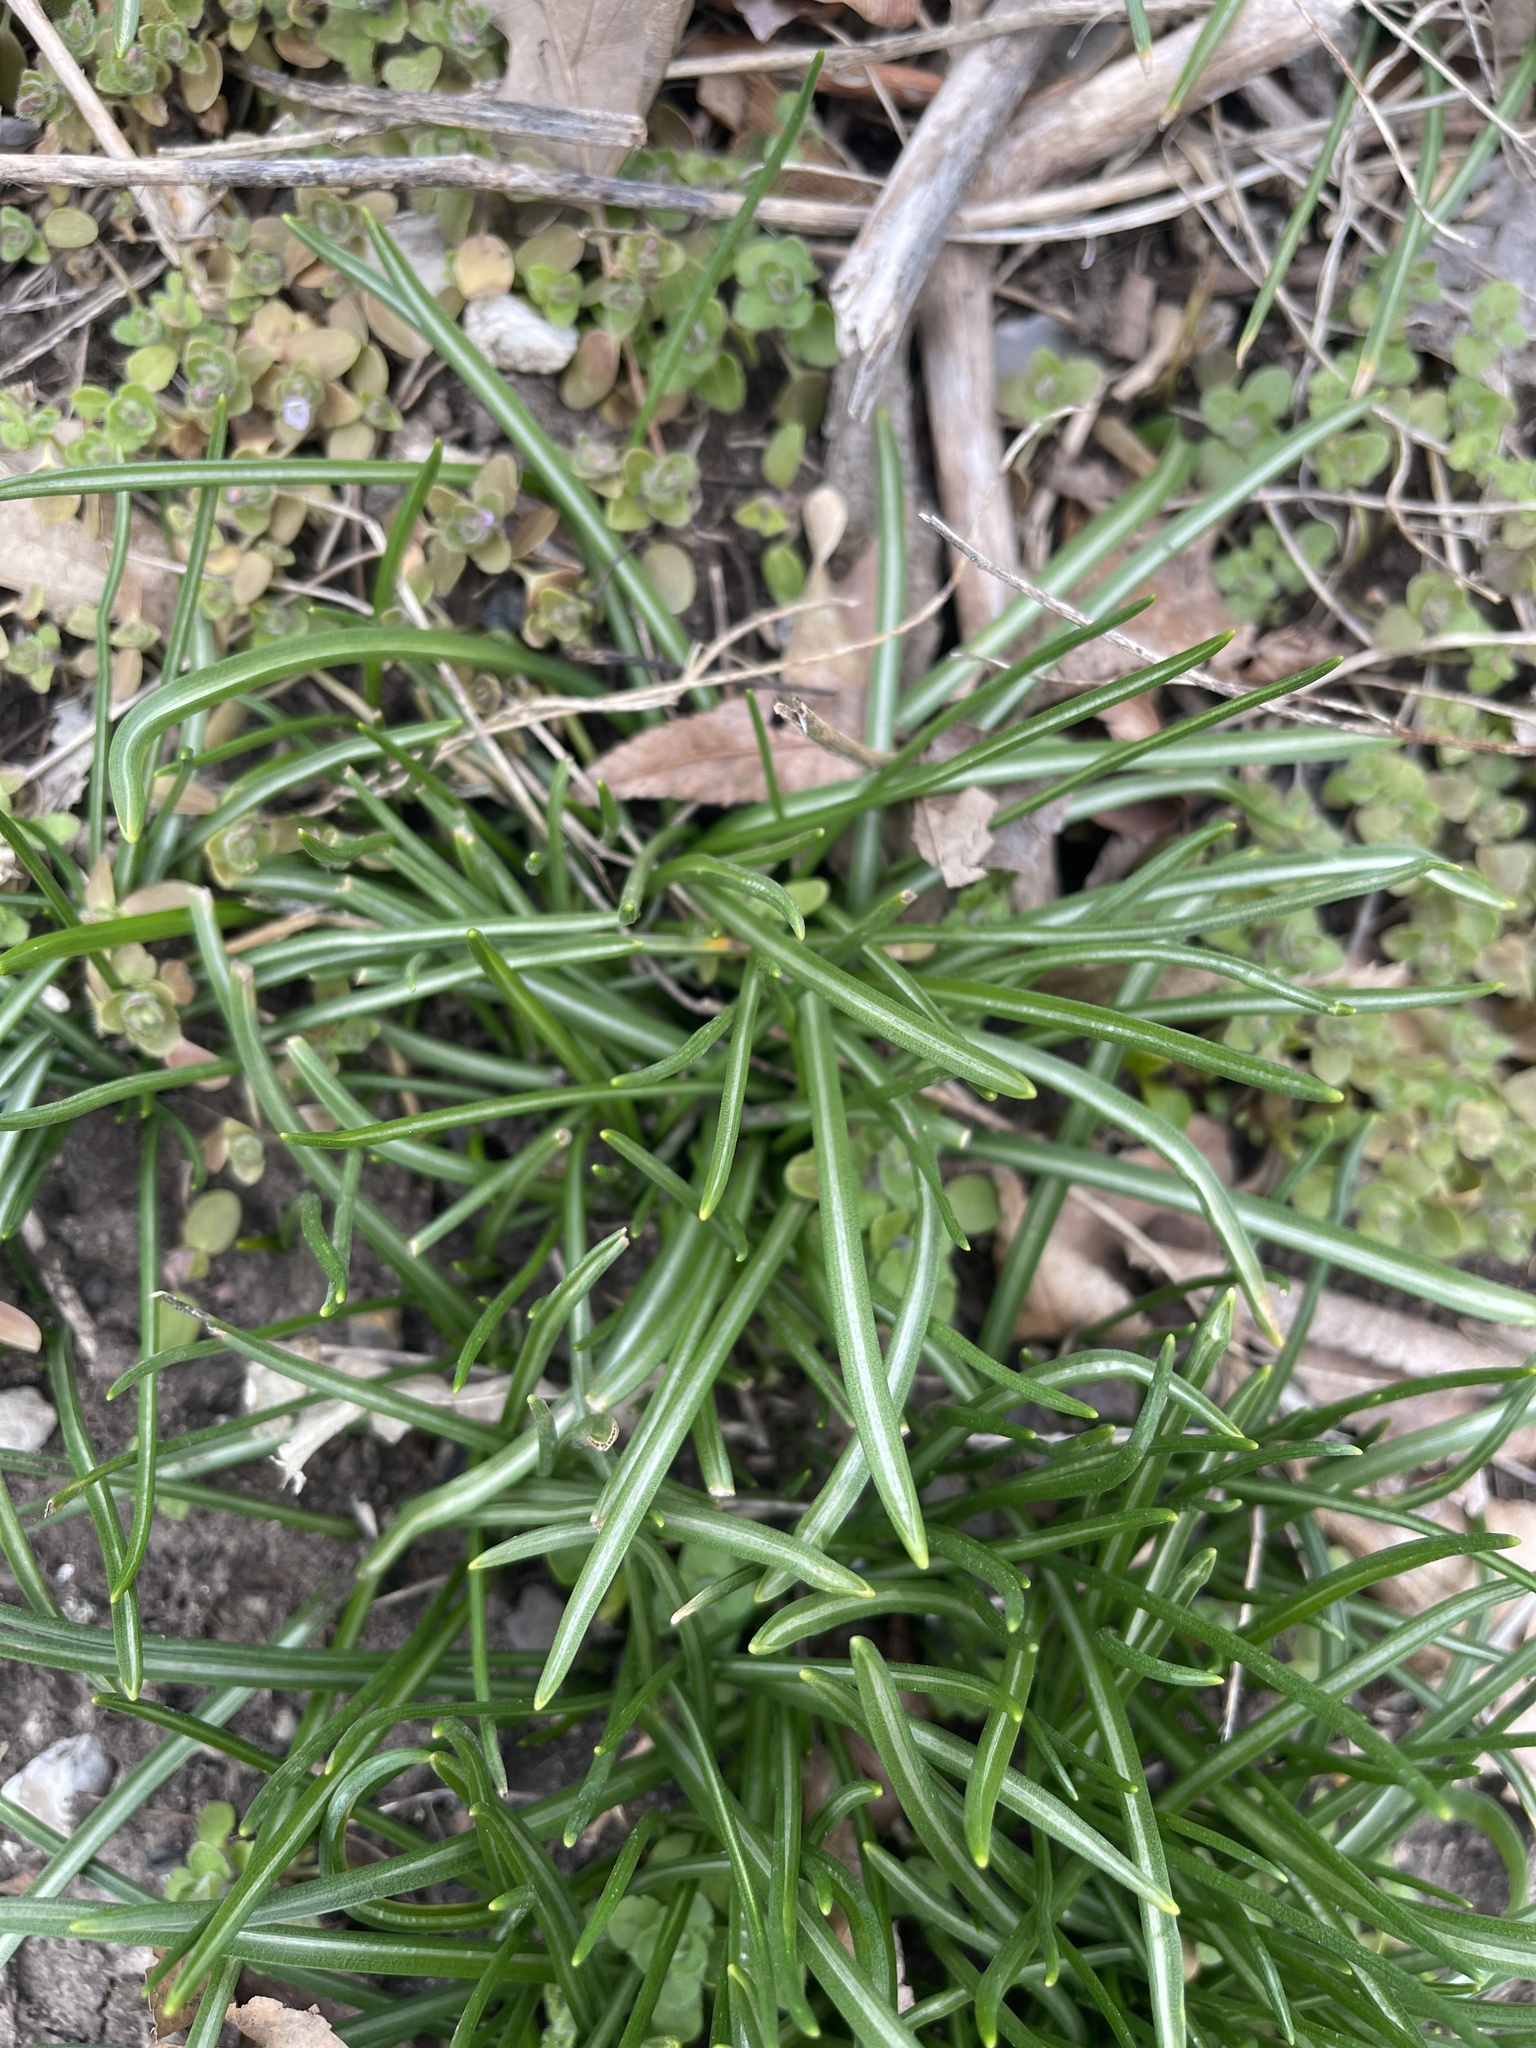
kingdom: Plantae
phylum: Tracheophyta
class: Liliopsida
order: Asparagales
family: Asparagaceae
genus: Ornithogalum
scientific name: Ornithogalum umbellatum
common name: Garden star-of-bethlehem
